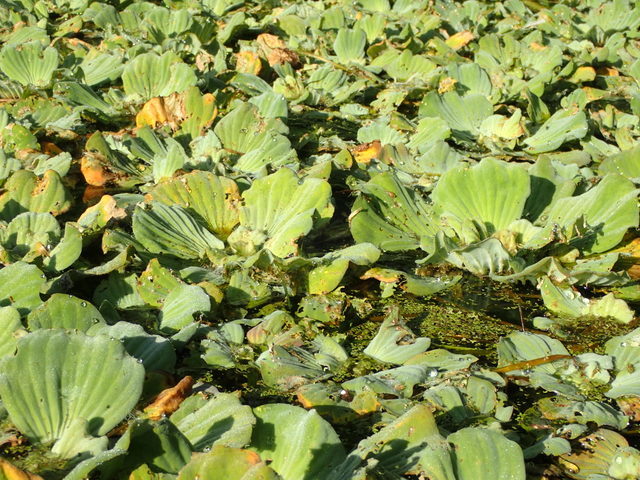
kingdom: Plantae
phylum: Tracheophyta
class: Liliopsida
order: Alismatales
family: Araceae
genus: Pistia
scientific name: Pistia stratiotes
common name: Water lettuce
